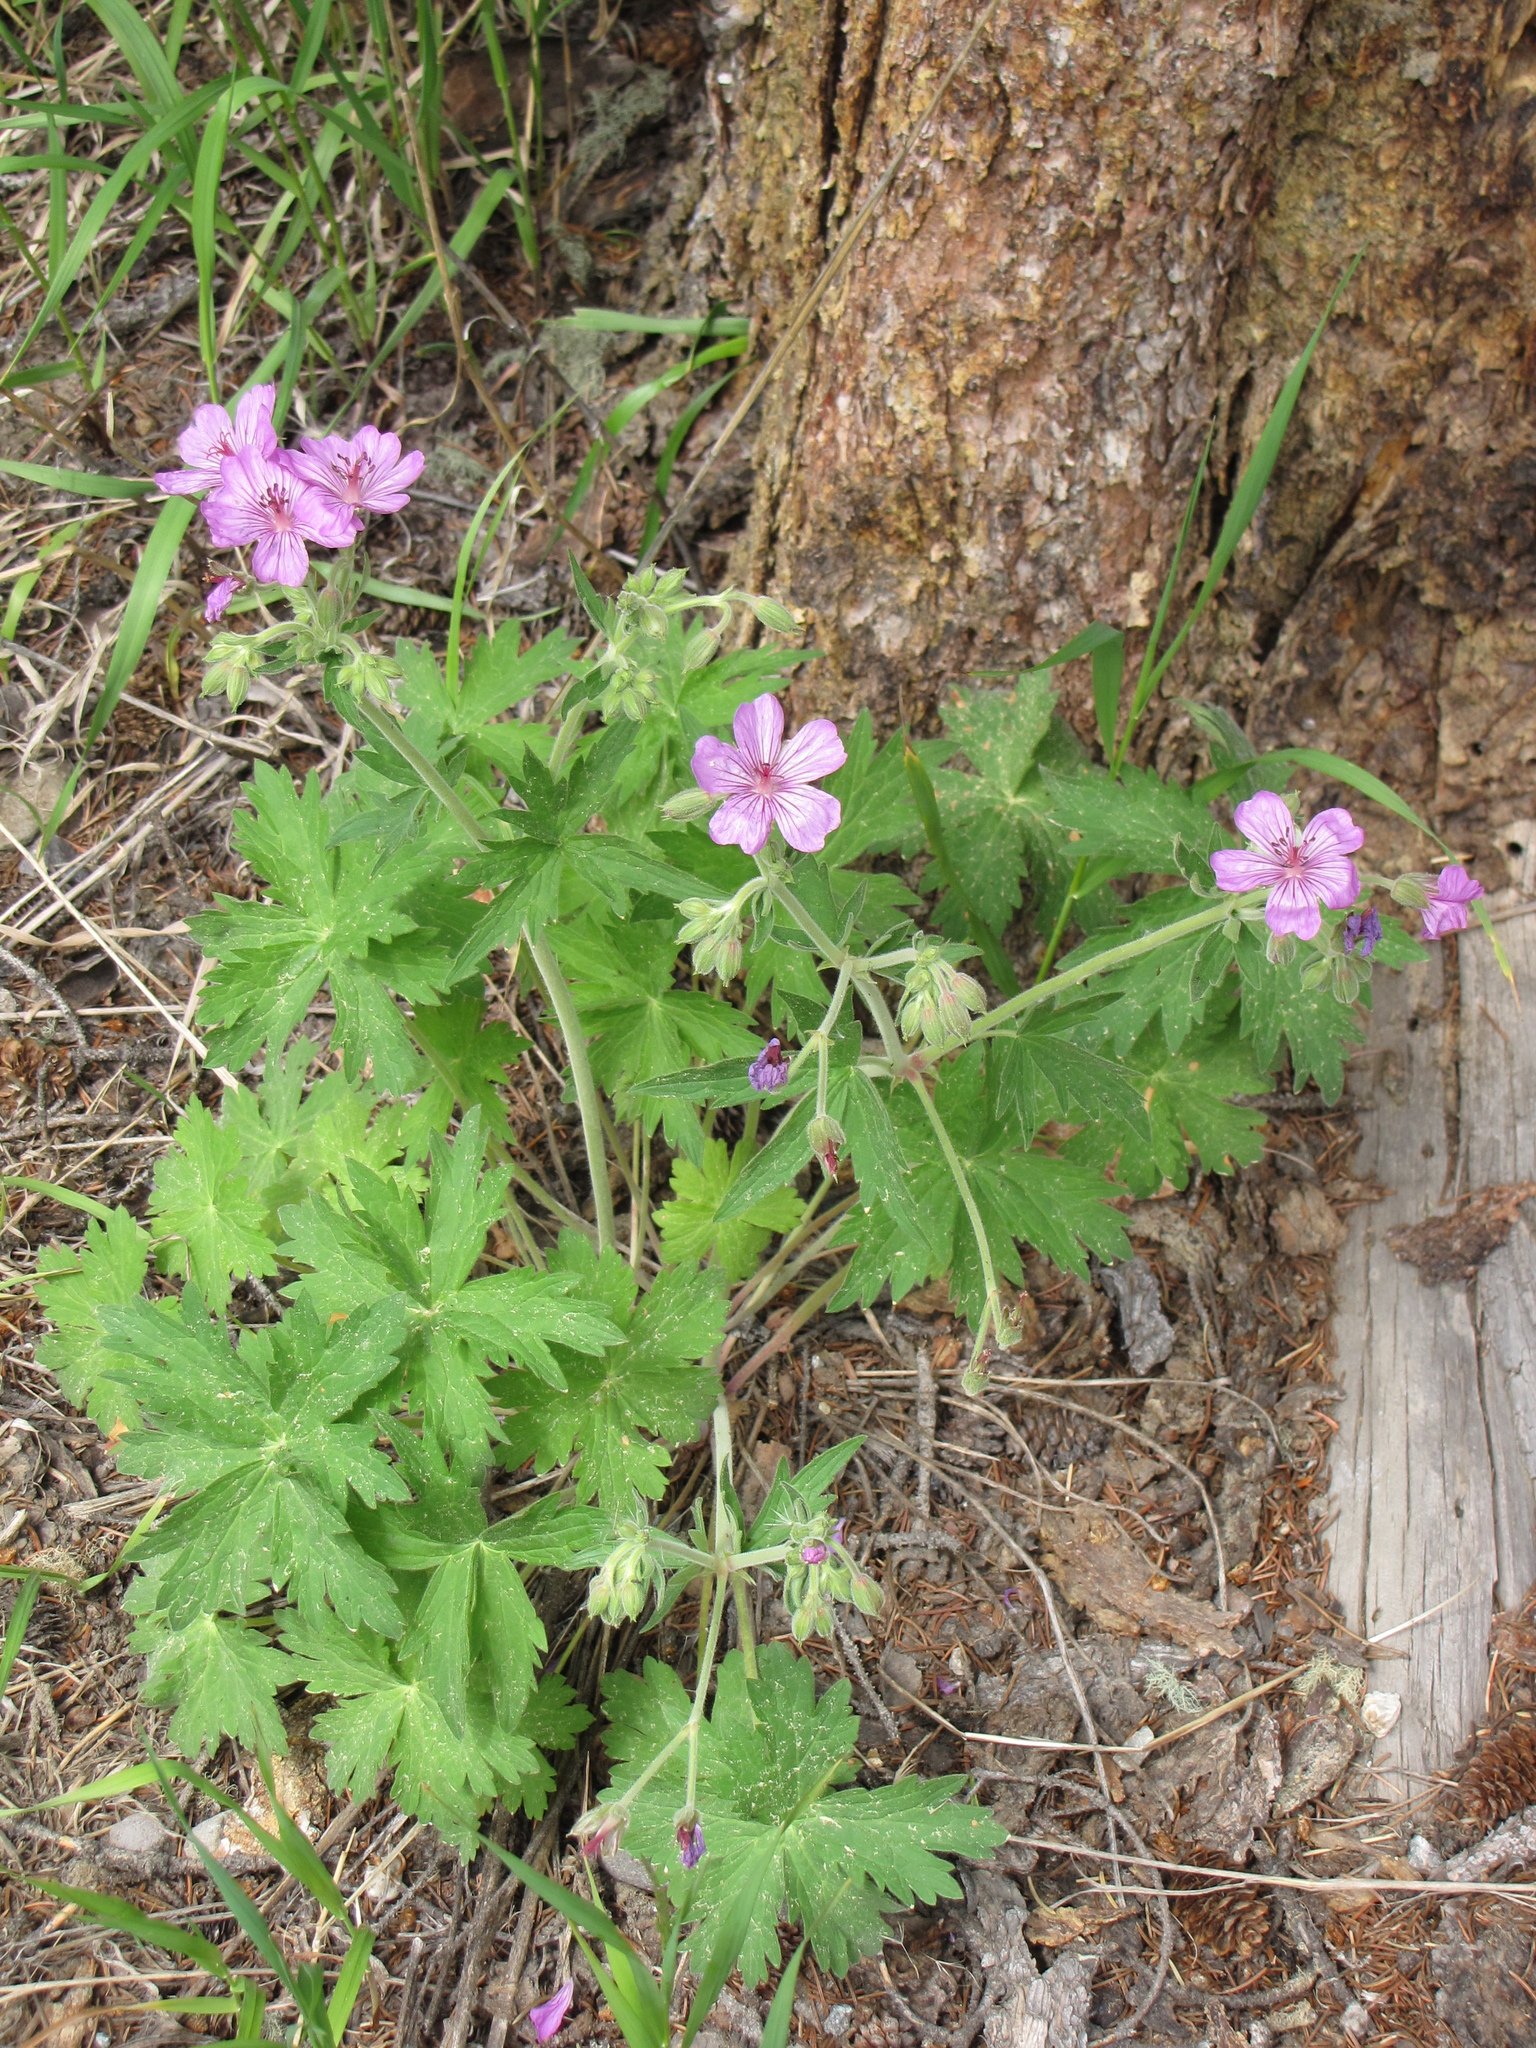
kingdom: Plantae
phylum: Tracheophyta
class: Magnoliopsida
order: Geraniales
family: Geraniaceae
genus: Geranium
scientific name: Geranium viscosissimum
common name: Purple geranium
